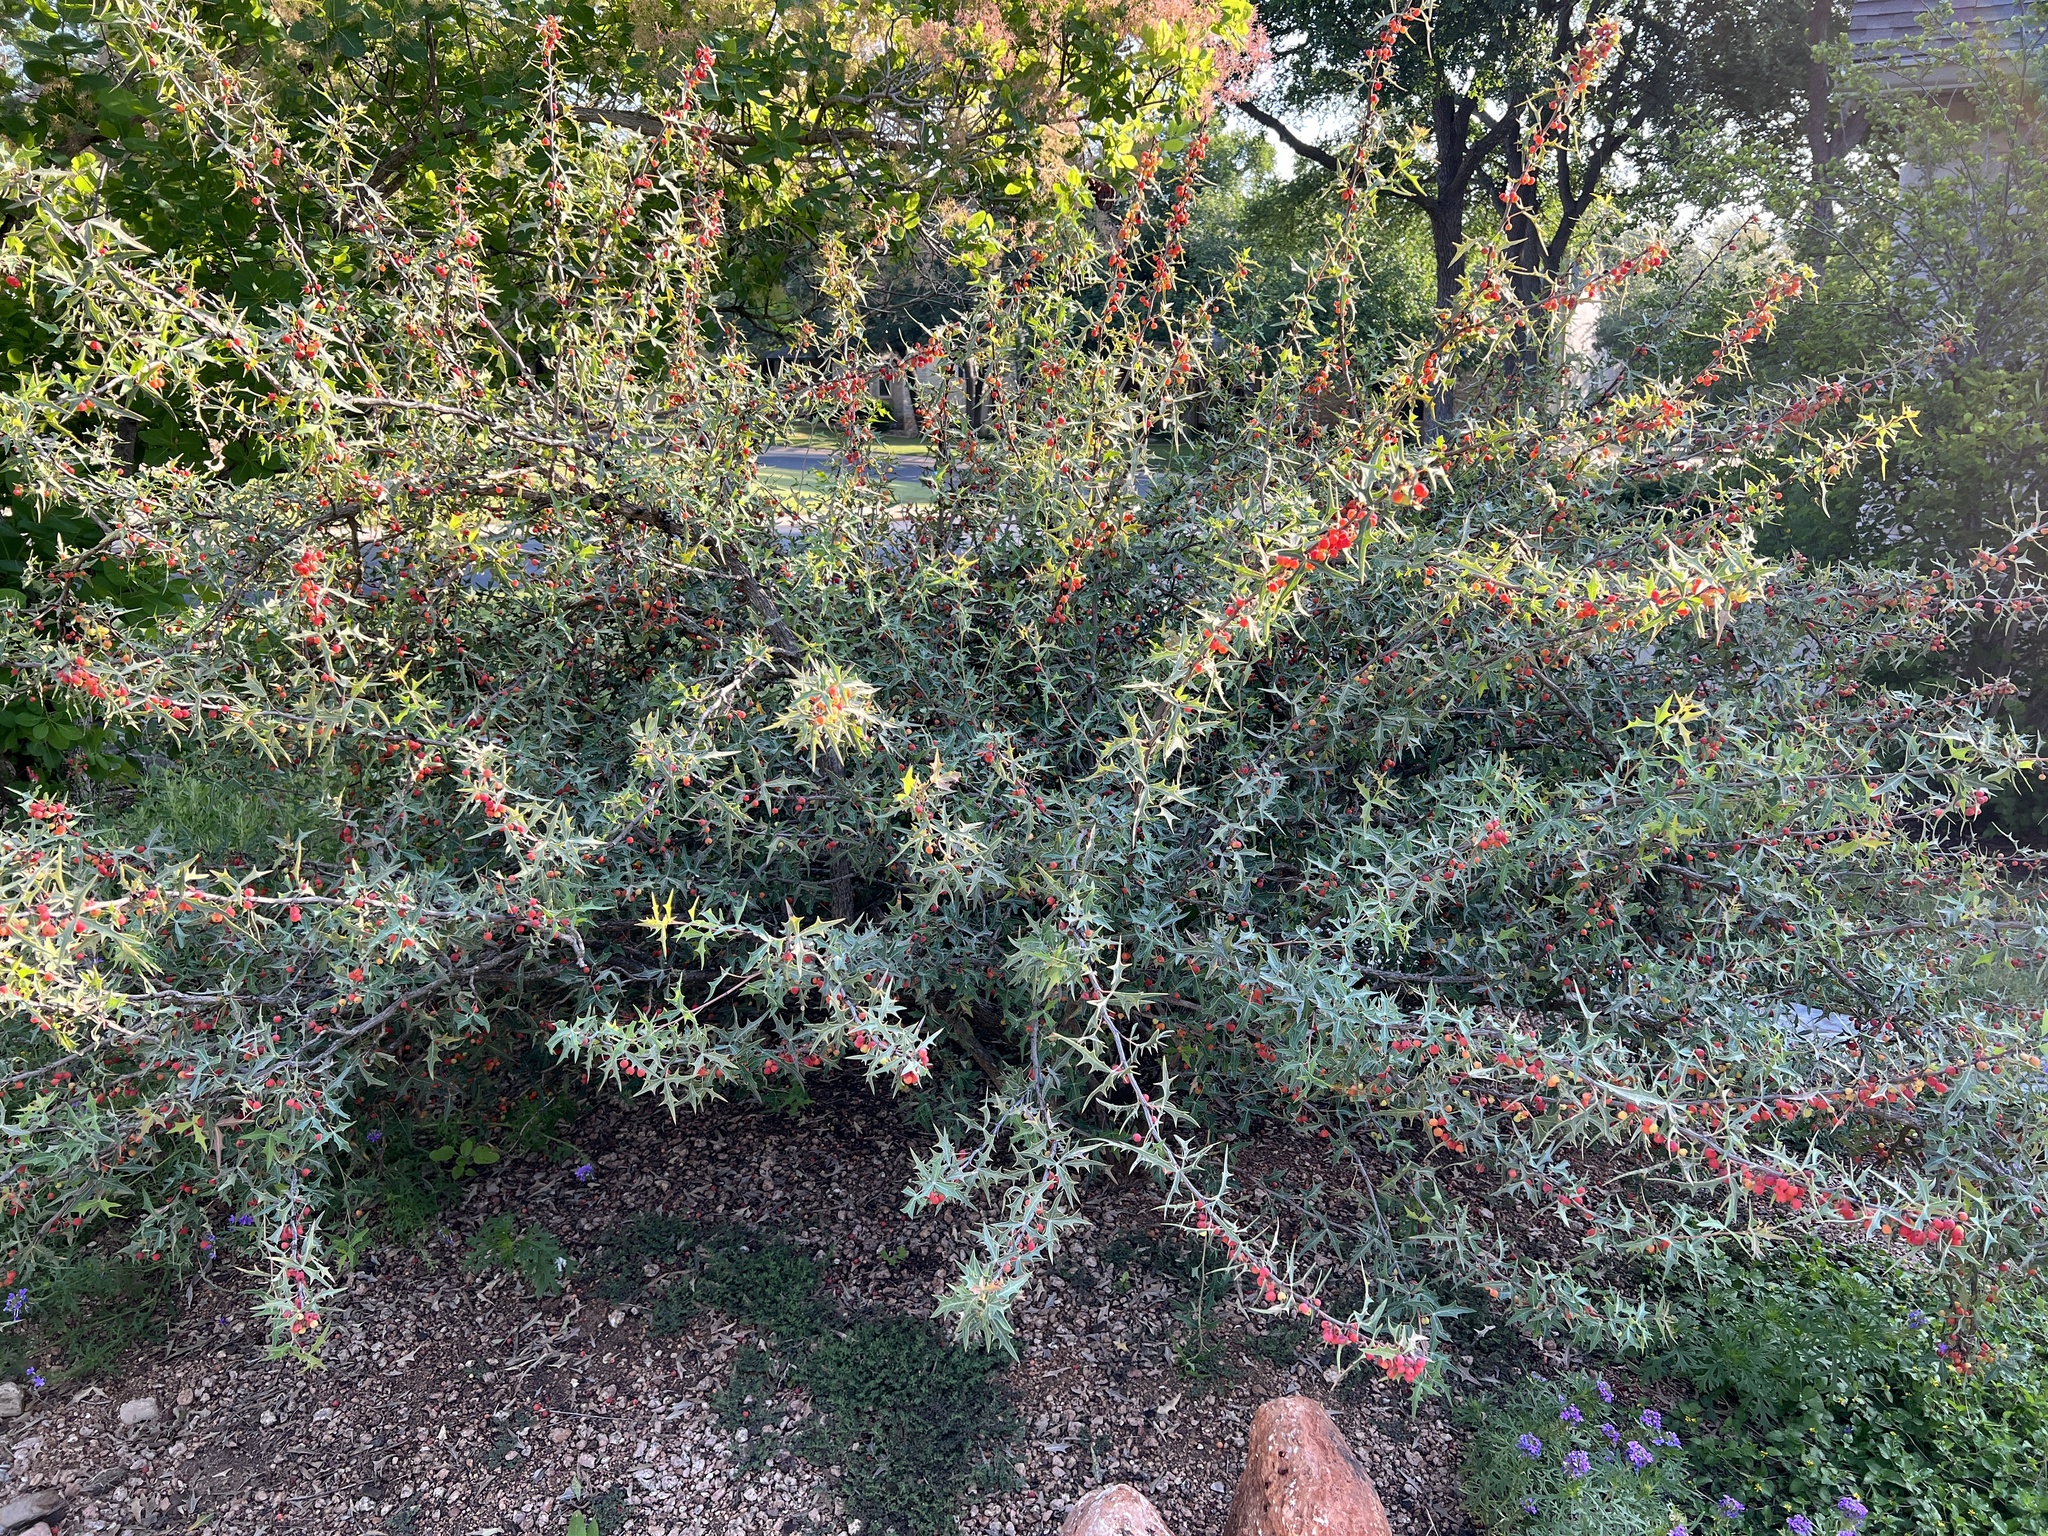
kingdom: Plantae
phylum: Tracheophyta
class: Magnoliopsida
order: Ranunculales
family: Berberidaceae
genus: Alloberberis
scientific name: Alloberberis trifoliolata
